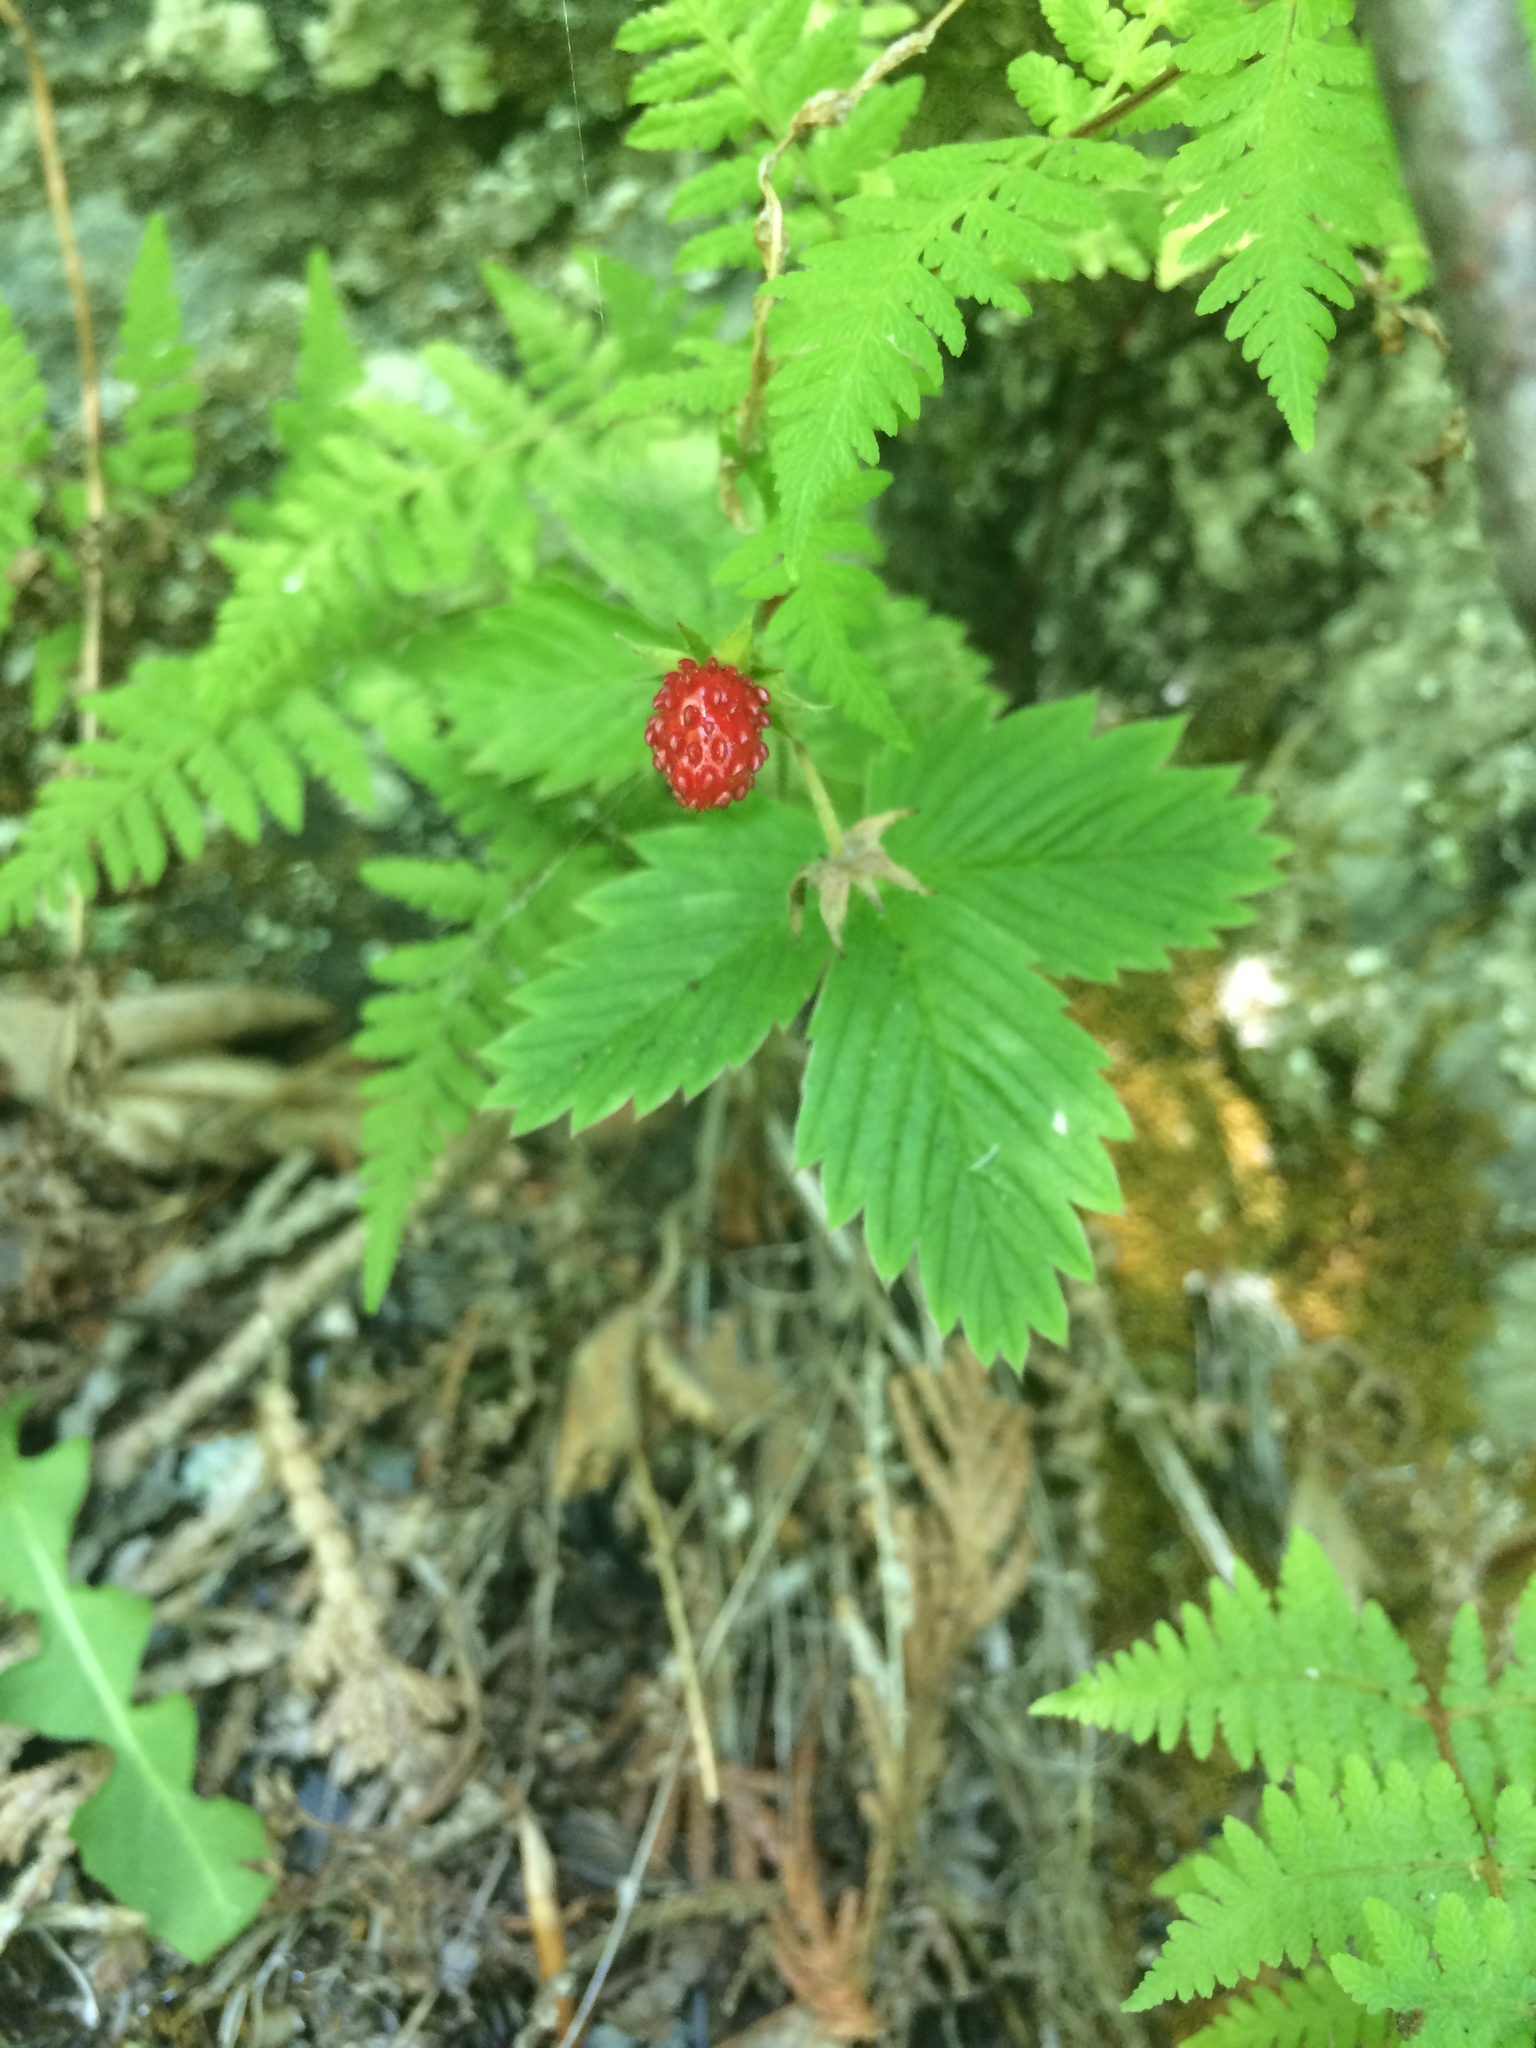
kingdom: Plantae
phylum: Tracheophyta
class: Magnoliopsida
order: Rosales
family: Rosaceae
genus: Fragaria
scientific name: Fragaria vesca
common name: Wild strawberry
